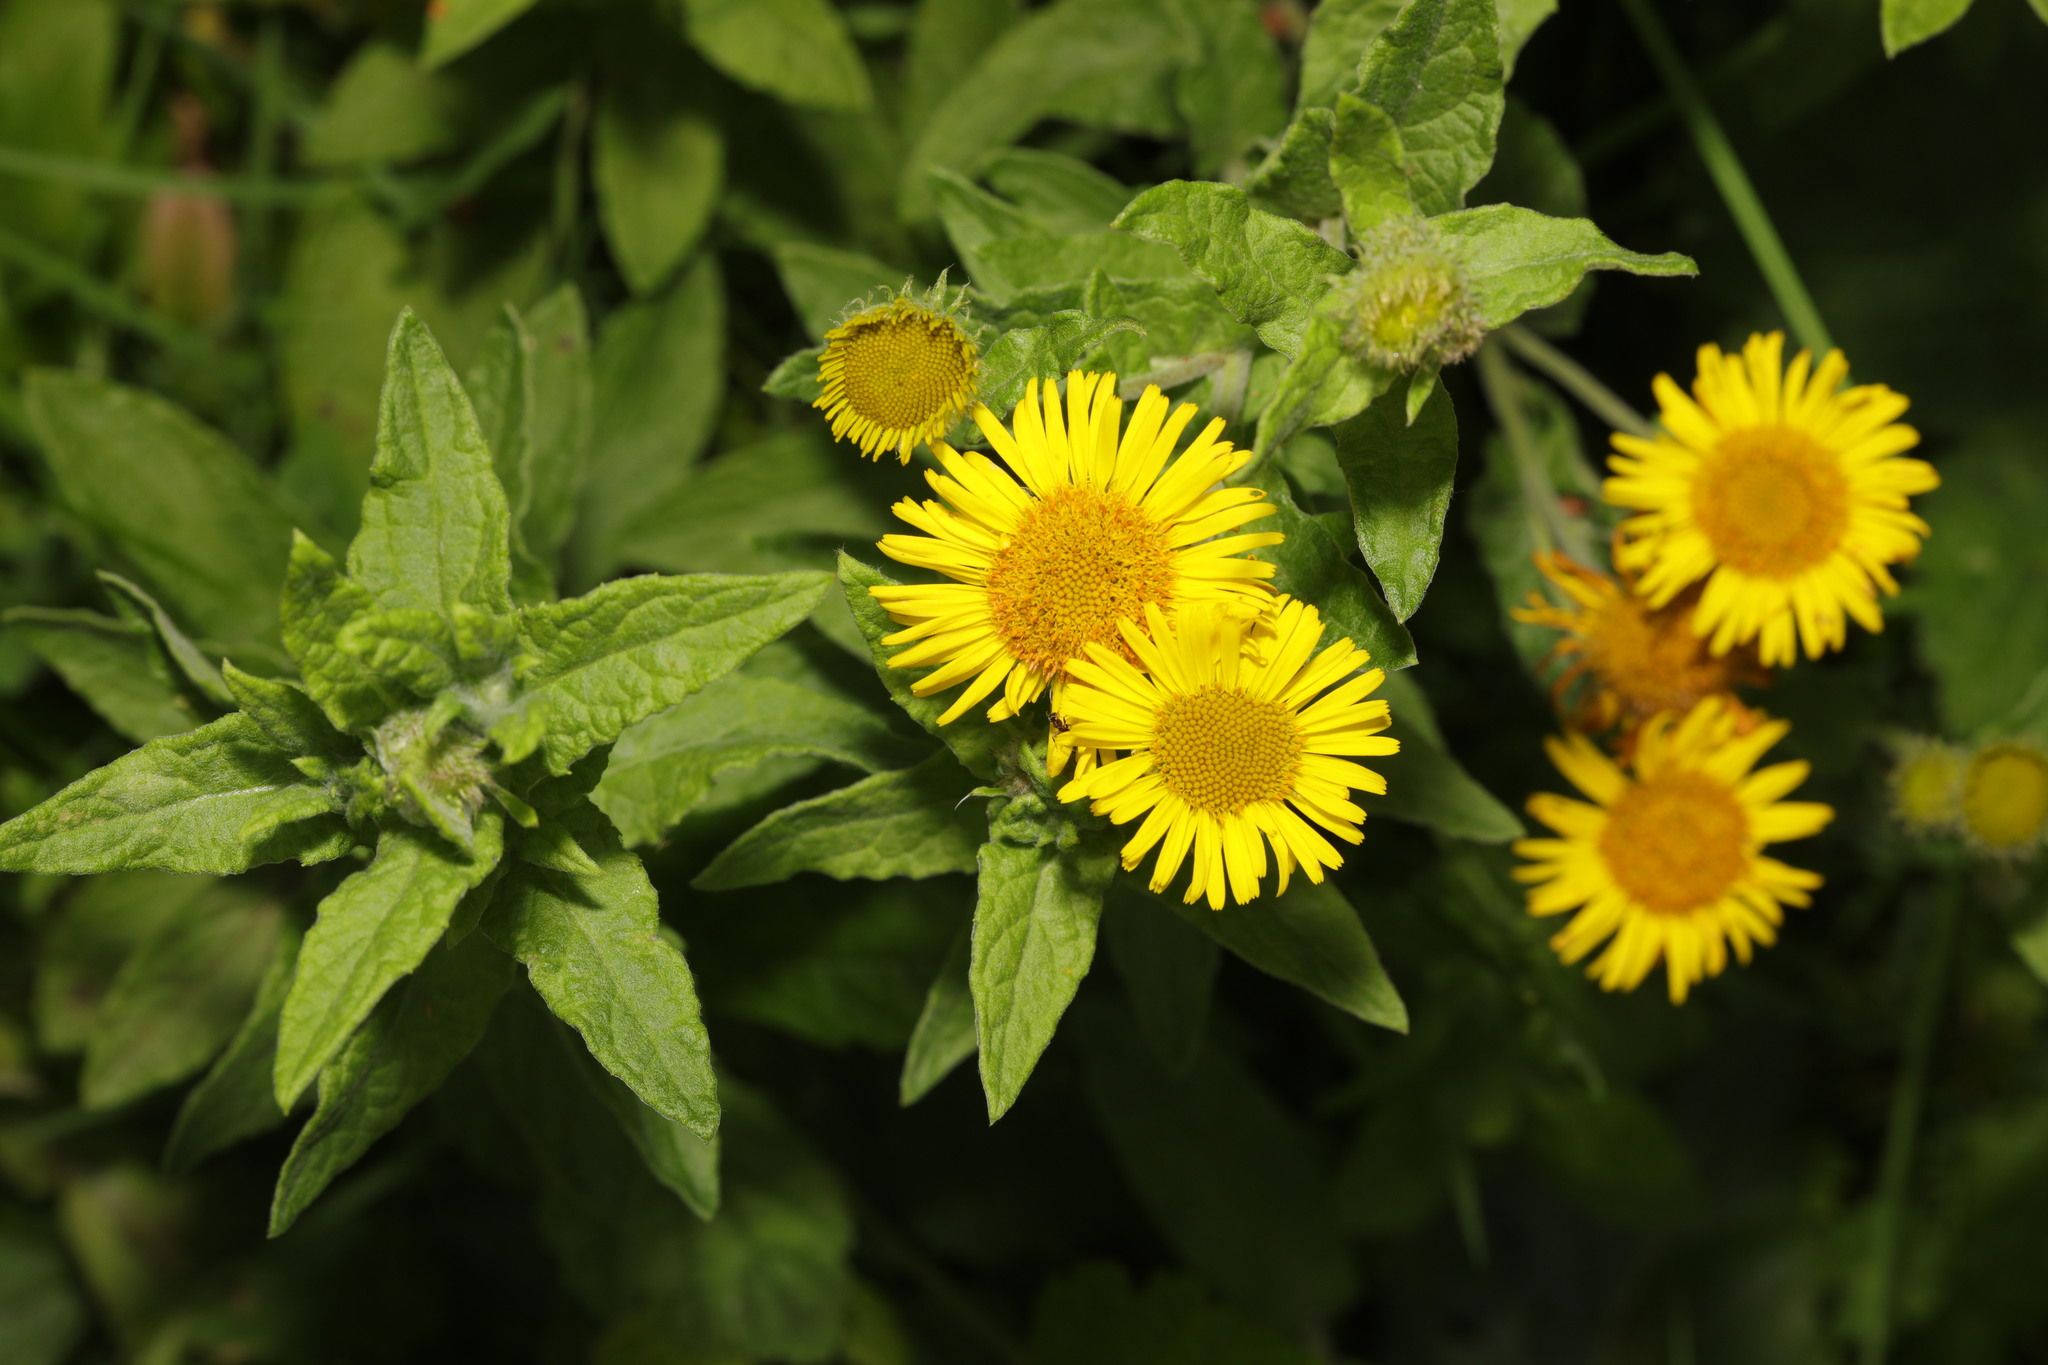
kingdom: Plantae
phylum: Tracheophyta
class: Magnoliopsida
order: Asterales
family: Asteraceae
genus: Pulicaria
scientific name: Pulicaria dysenterica
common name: Common fleabane
